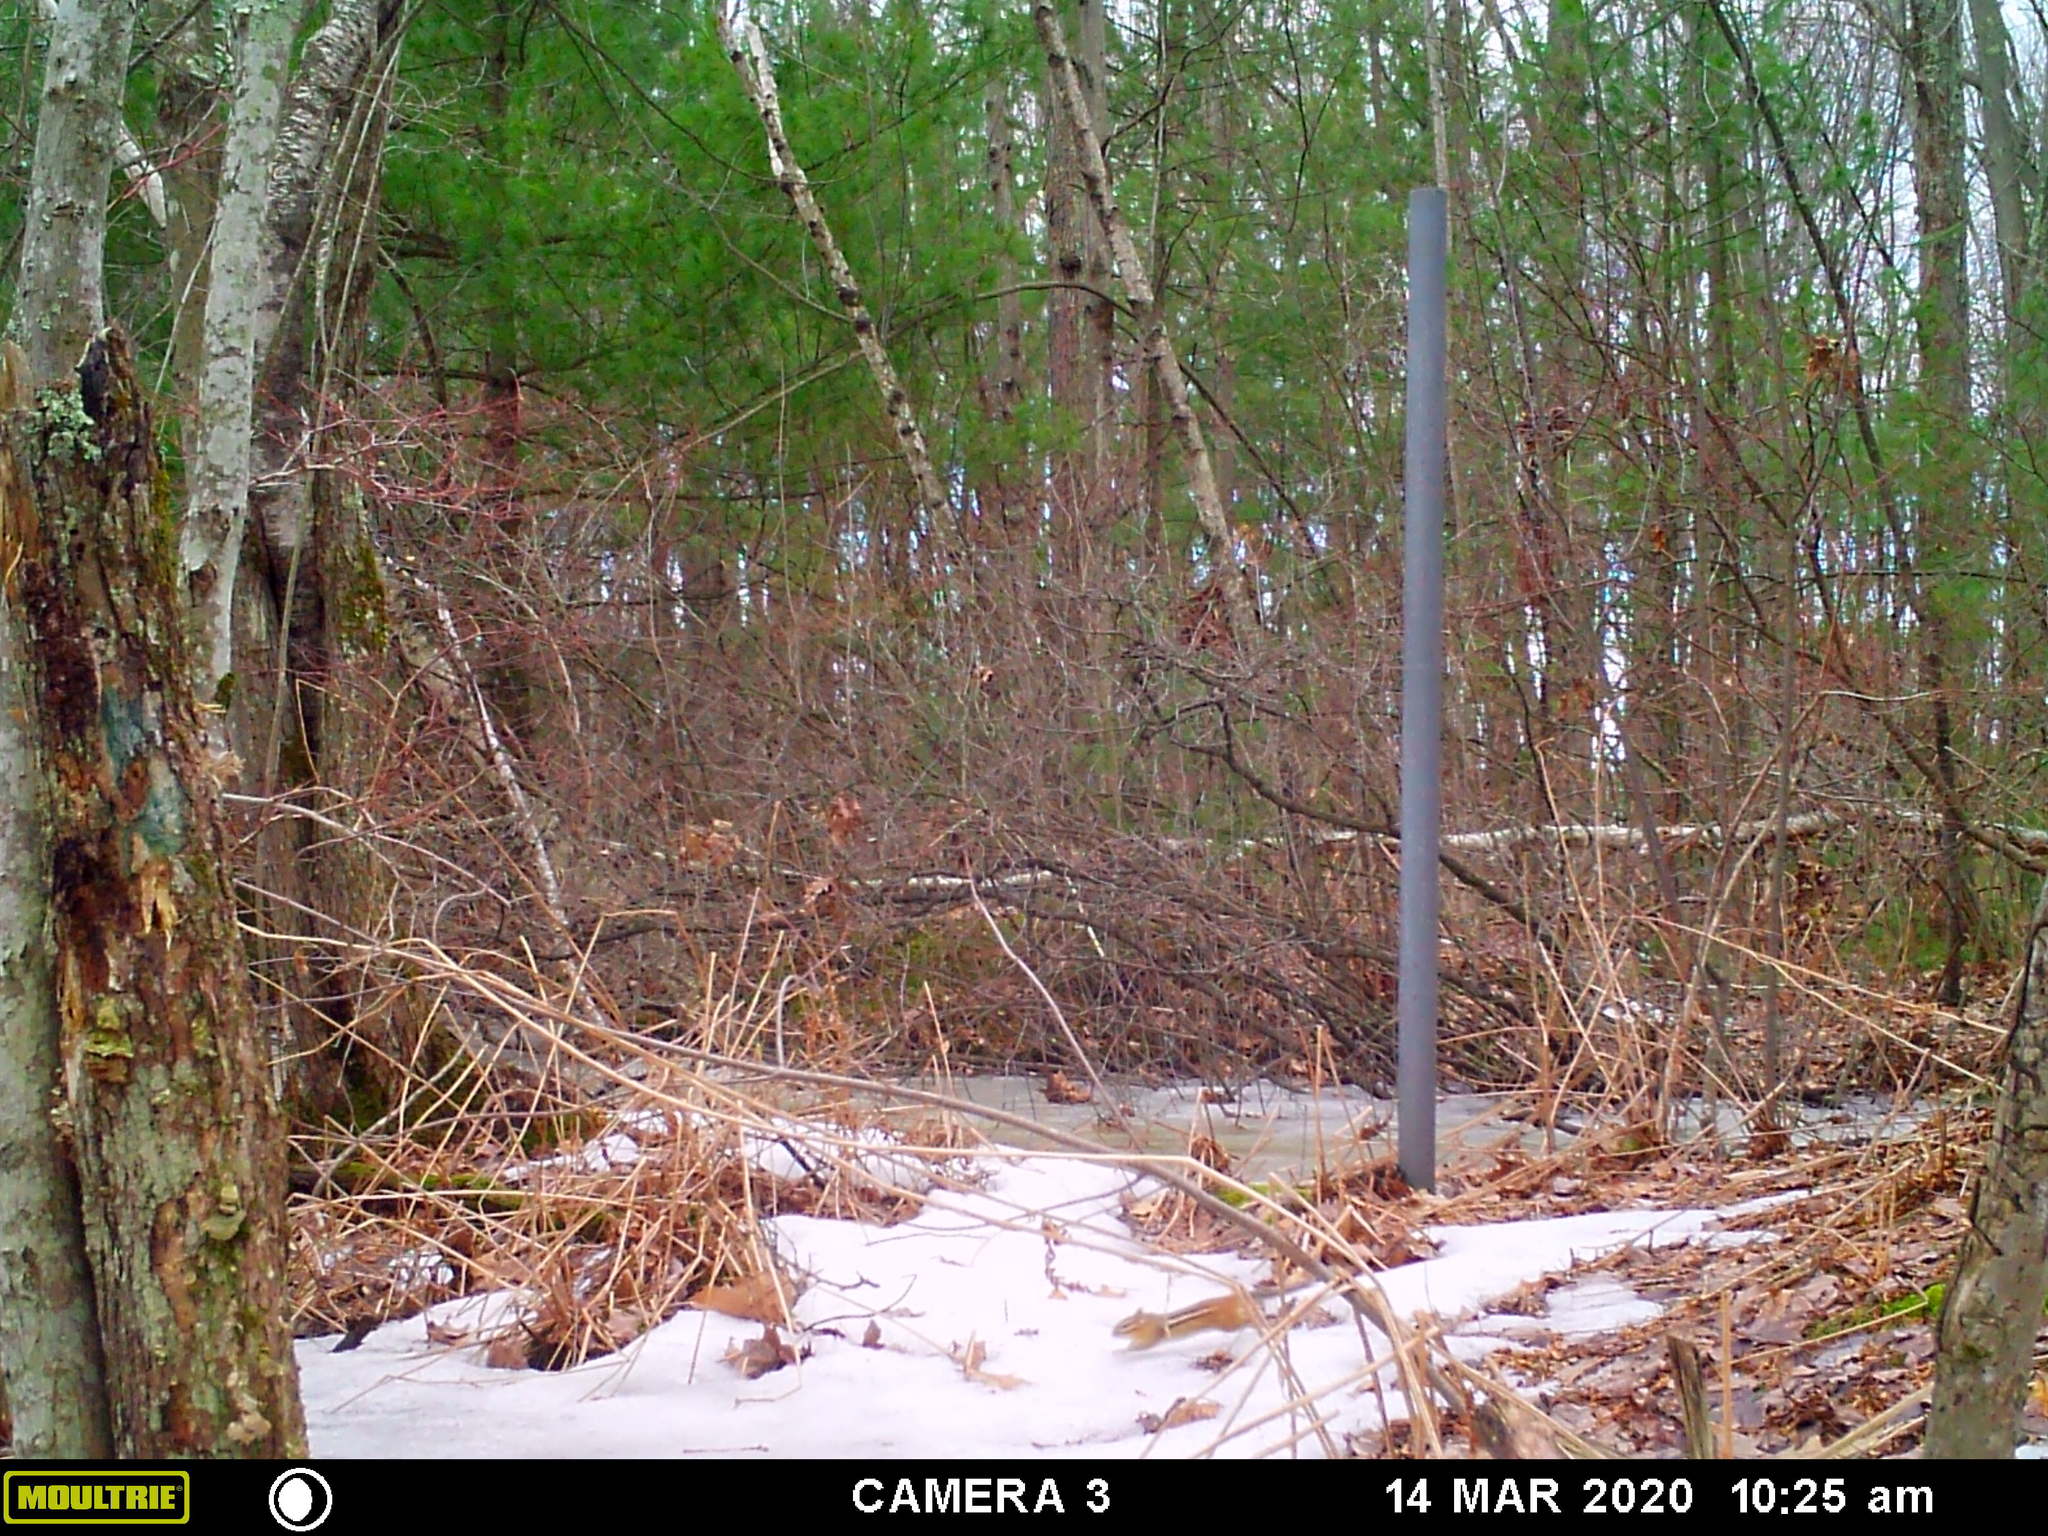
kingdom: Animalia
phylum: Chordata
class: Mammalia
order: Rodentia
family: Sciuridae
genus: Tamias
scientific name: Tamias striatus
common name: Eastern chipmunk
